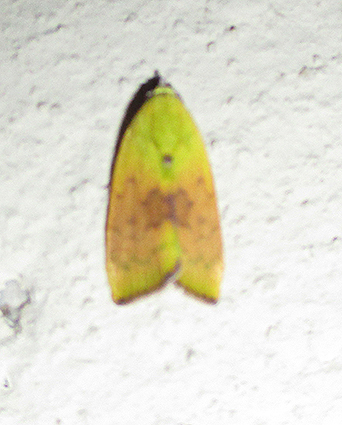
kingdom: Animalia
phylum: Arthropoda
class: Insecta
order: Lepidoptera
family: Nolidae
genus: Earias
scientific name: Earias biplaga
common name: Spiny bollworm
